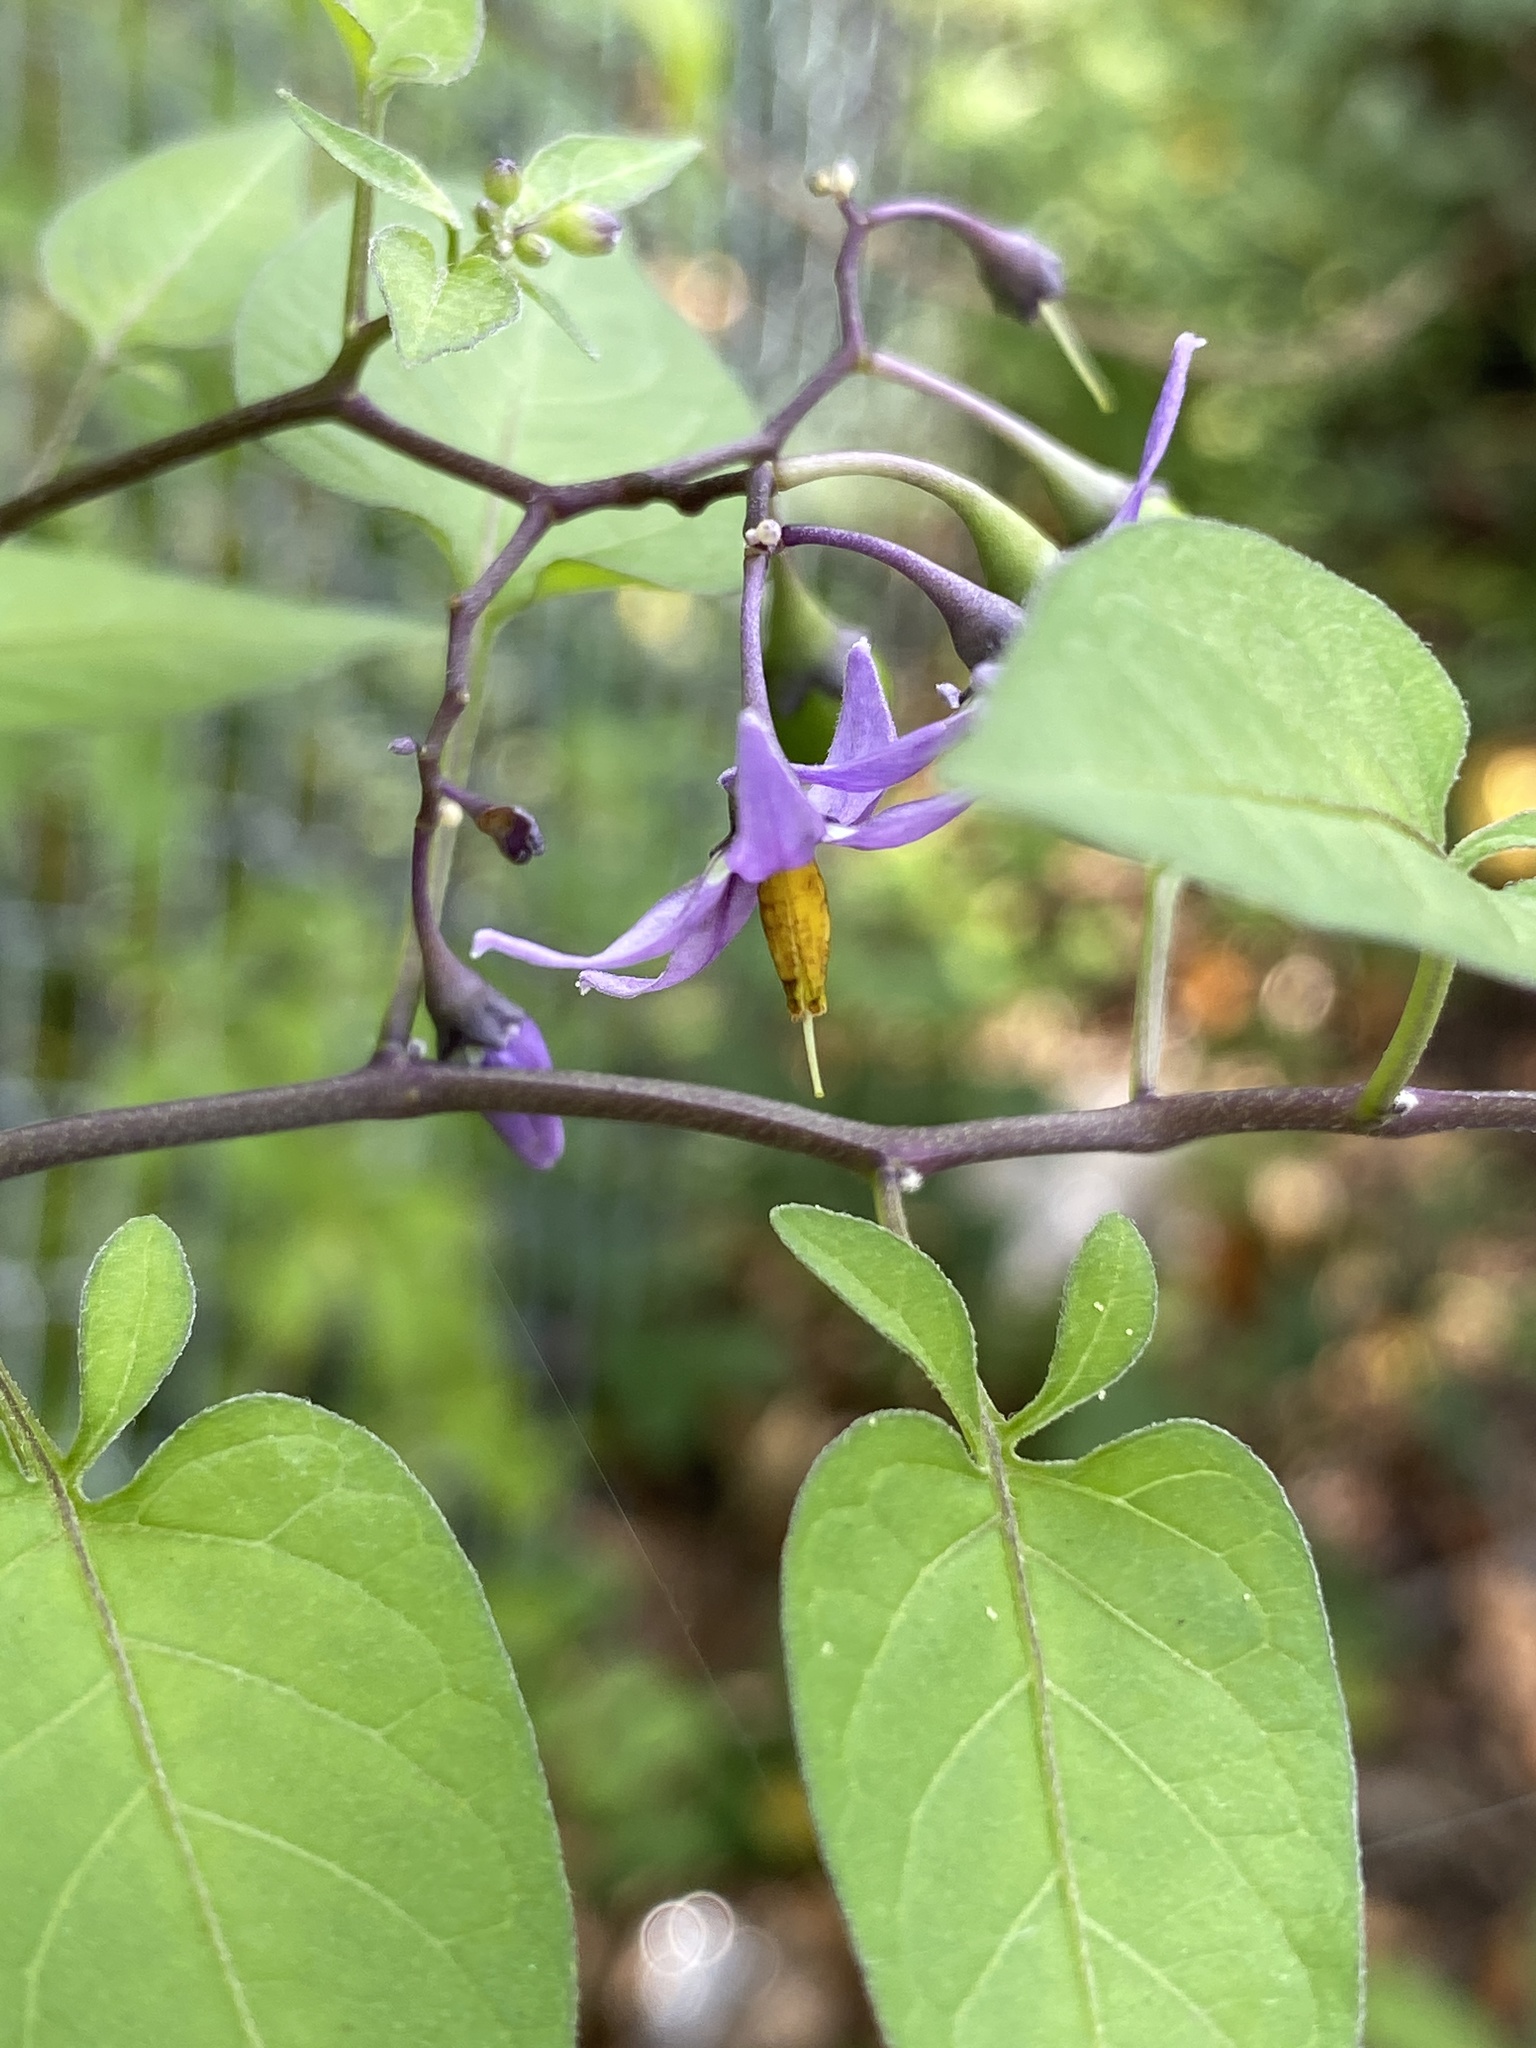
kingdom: Plantae
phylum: Tracheophyta
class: Magnoliopsida
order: Solanales
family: Solanaceae
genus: Solanum
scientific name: Solanum dulcamara
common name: Climbing nightshade
